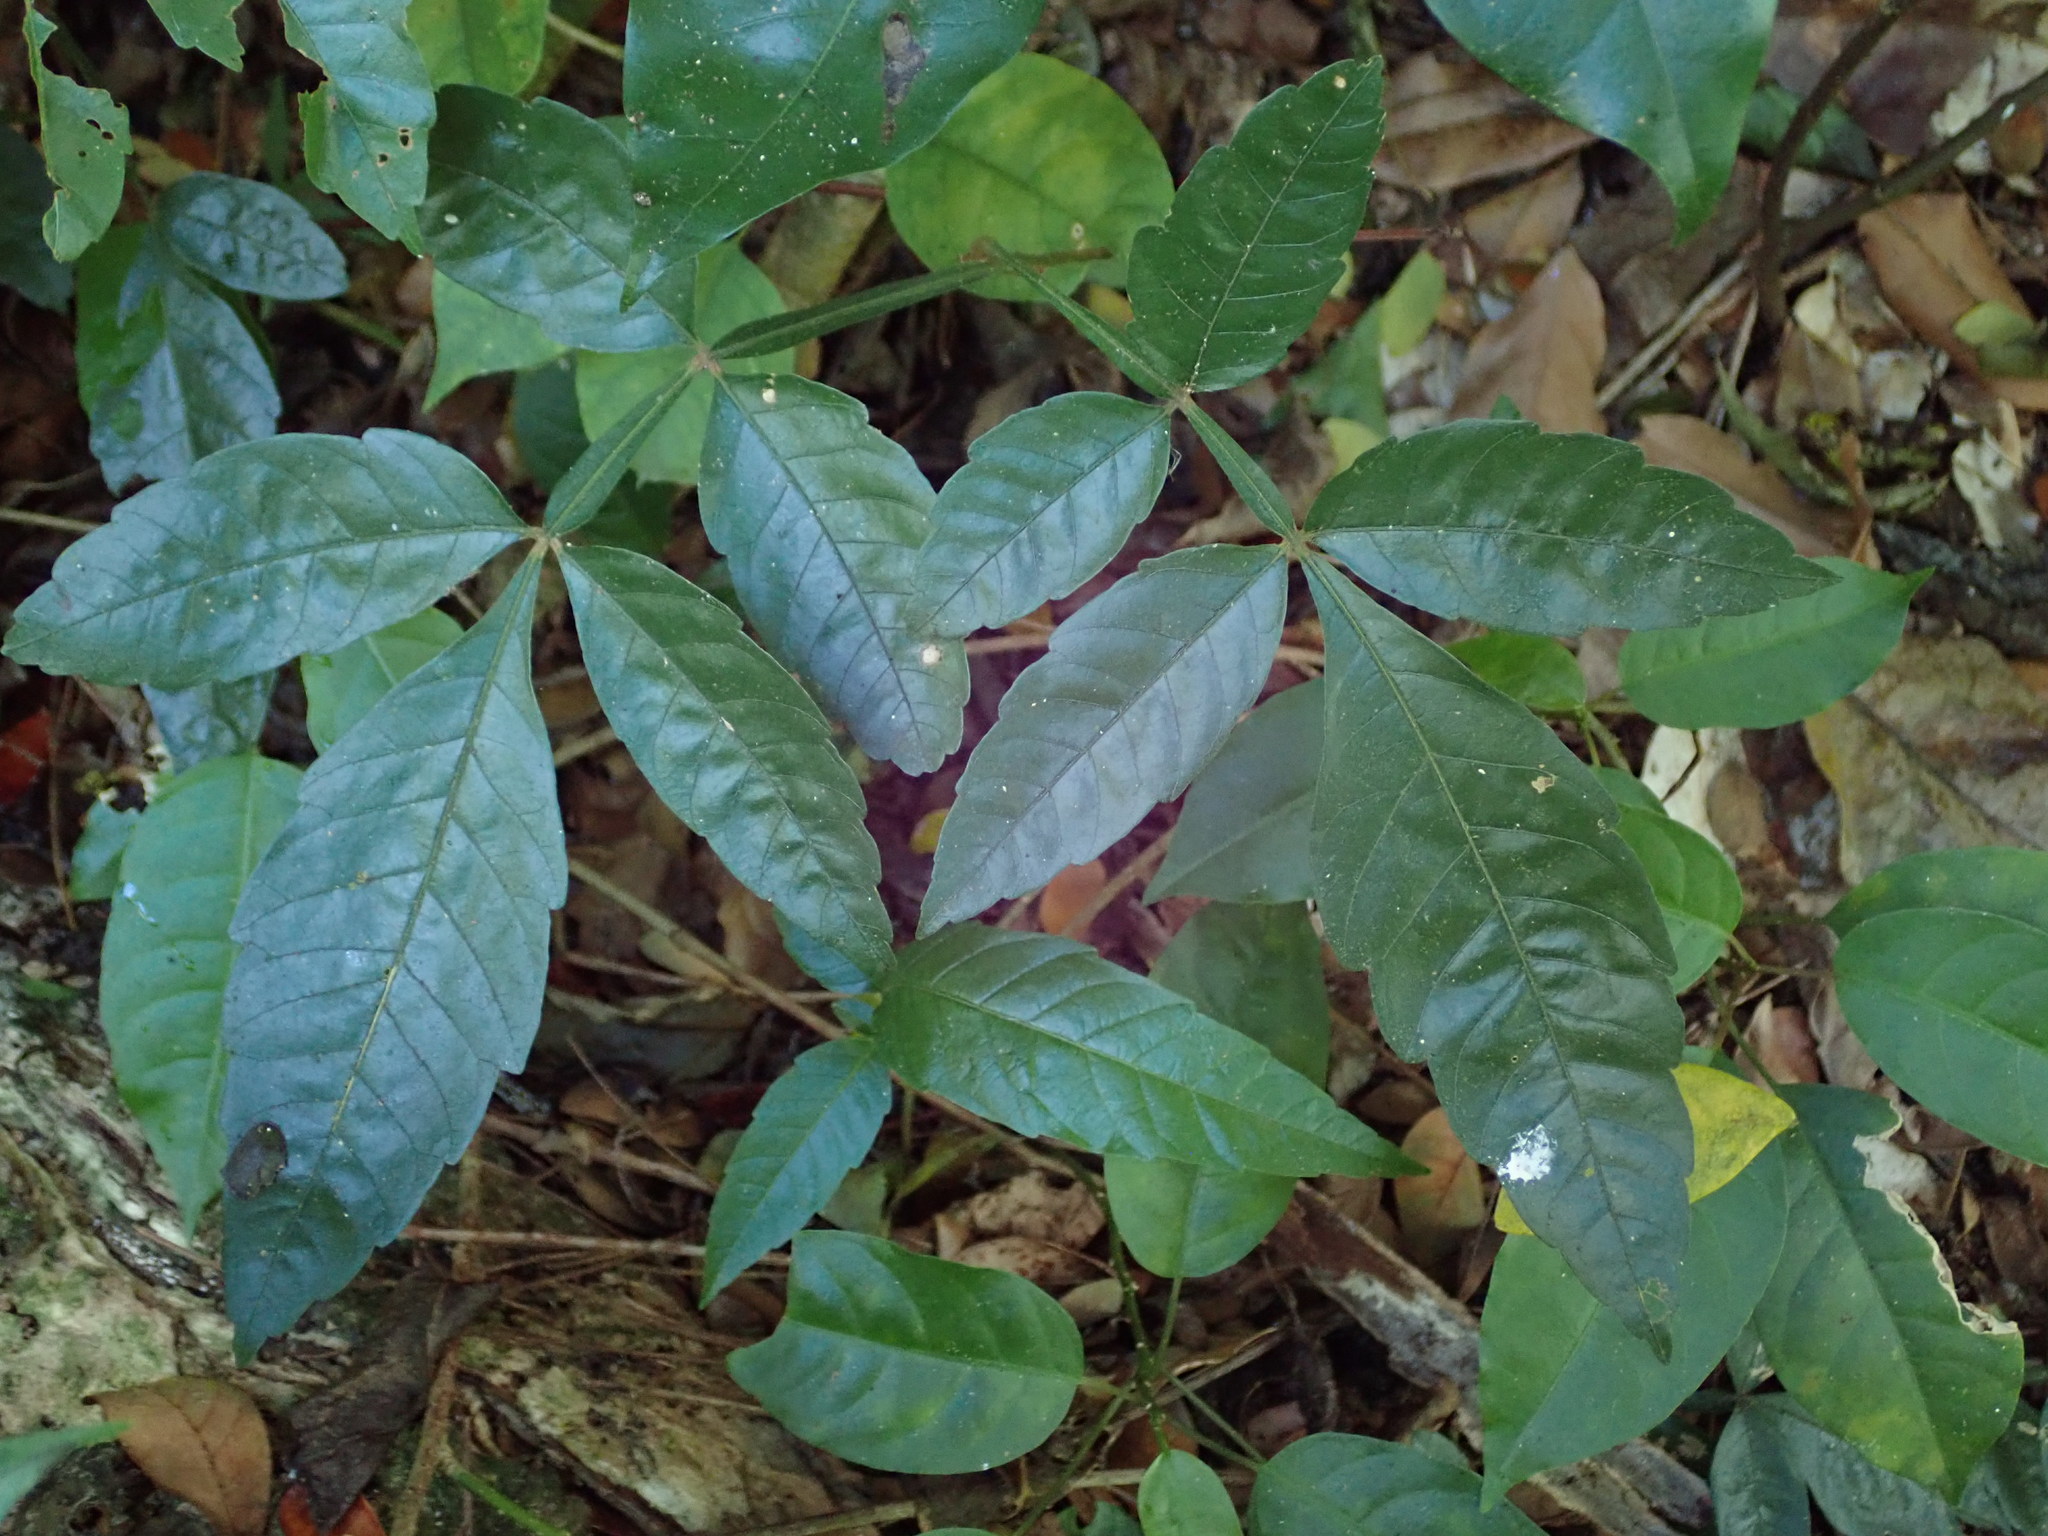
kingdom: Plantae
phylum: Tracheophyta
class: Magnoliopsida
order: Sapindales
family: Sapindaceae
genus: Paullinia
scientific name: Paullinia pinnata
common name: Barbasco
